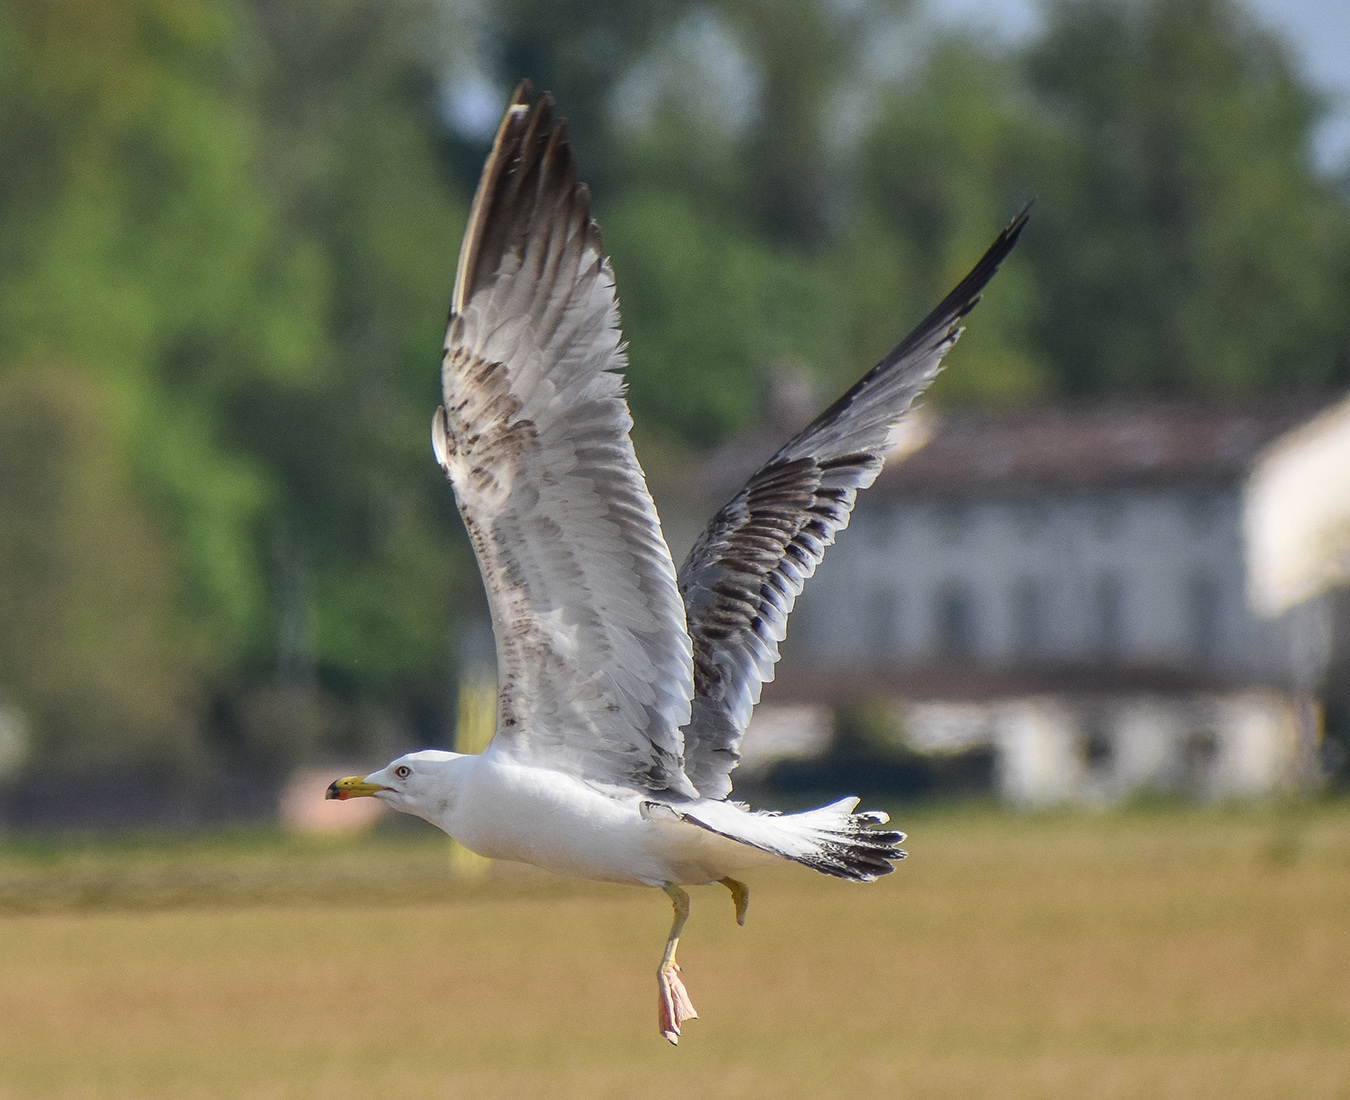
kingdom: Animalia
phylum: Chordata
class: Aves
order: Charadriiformes
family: Laridae
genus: Larus
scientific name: Larus michahellis
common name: Yellow-legged gull
